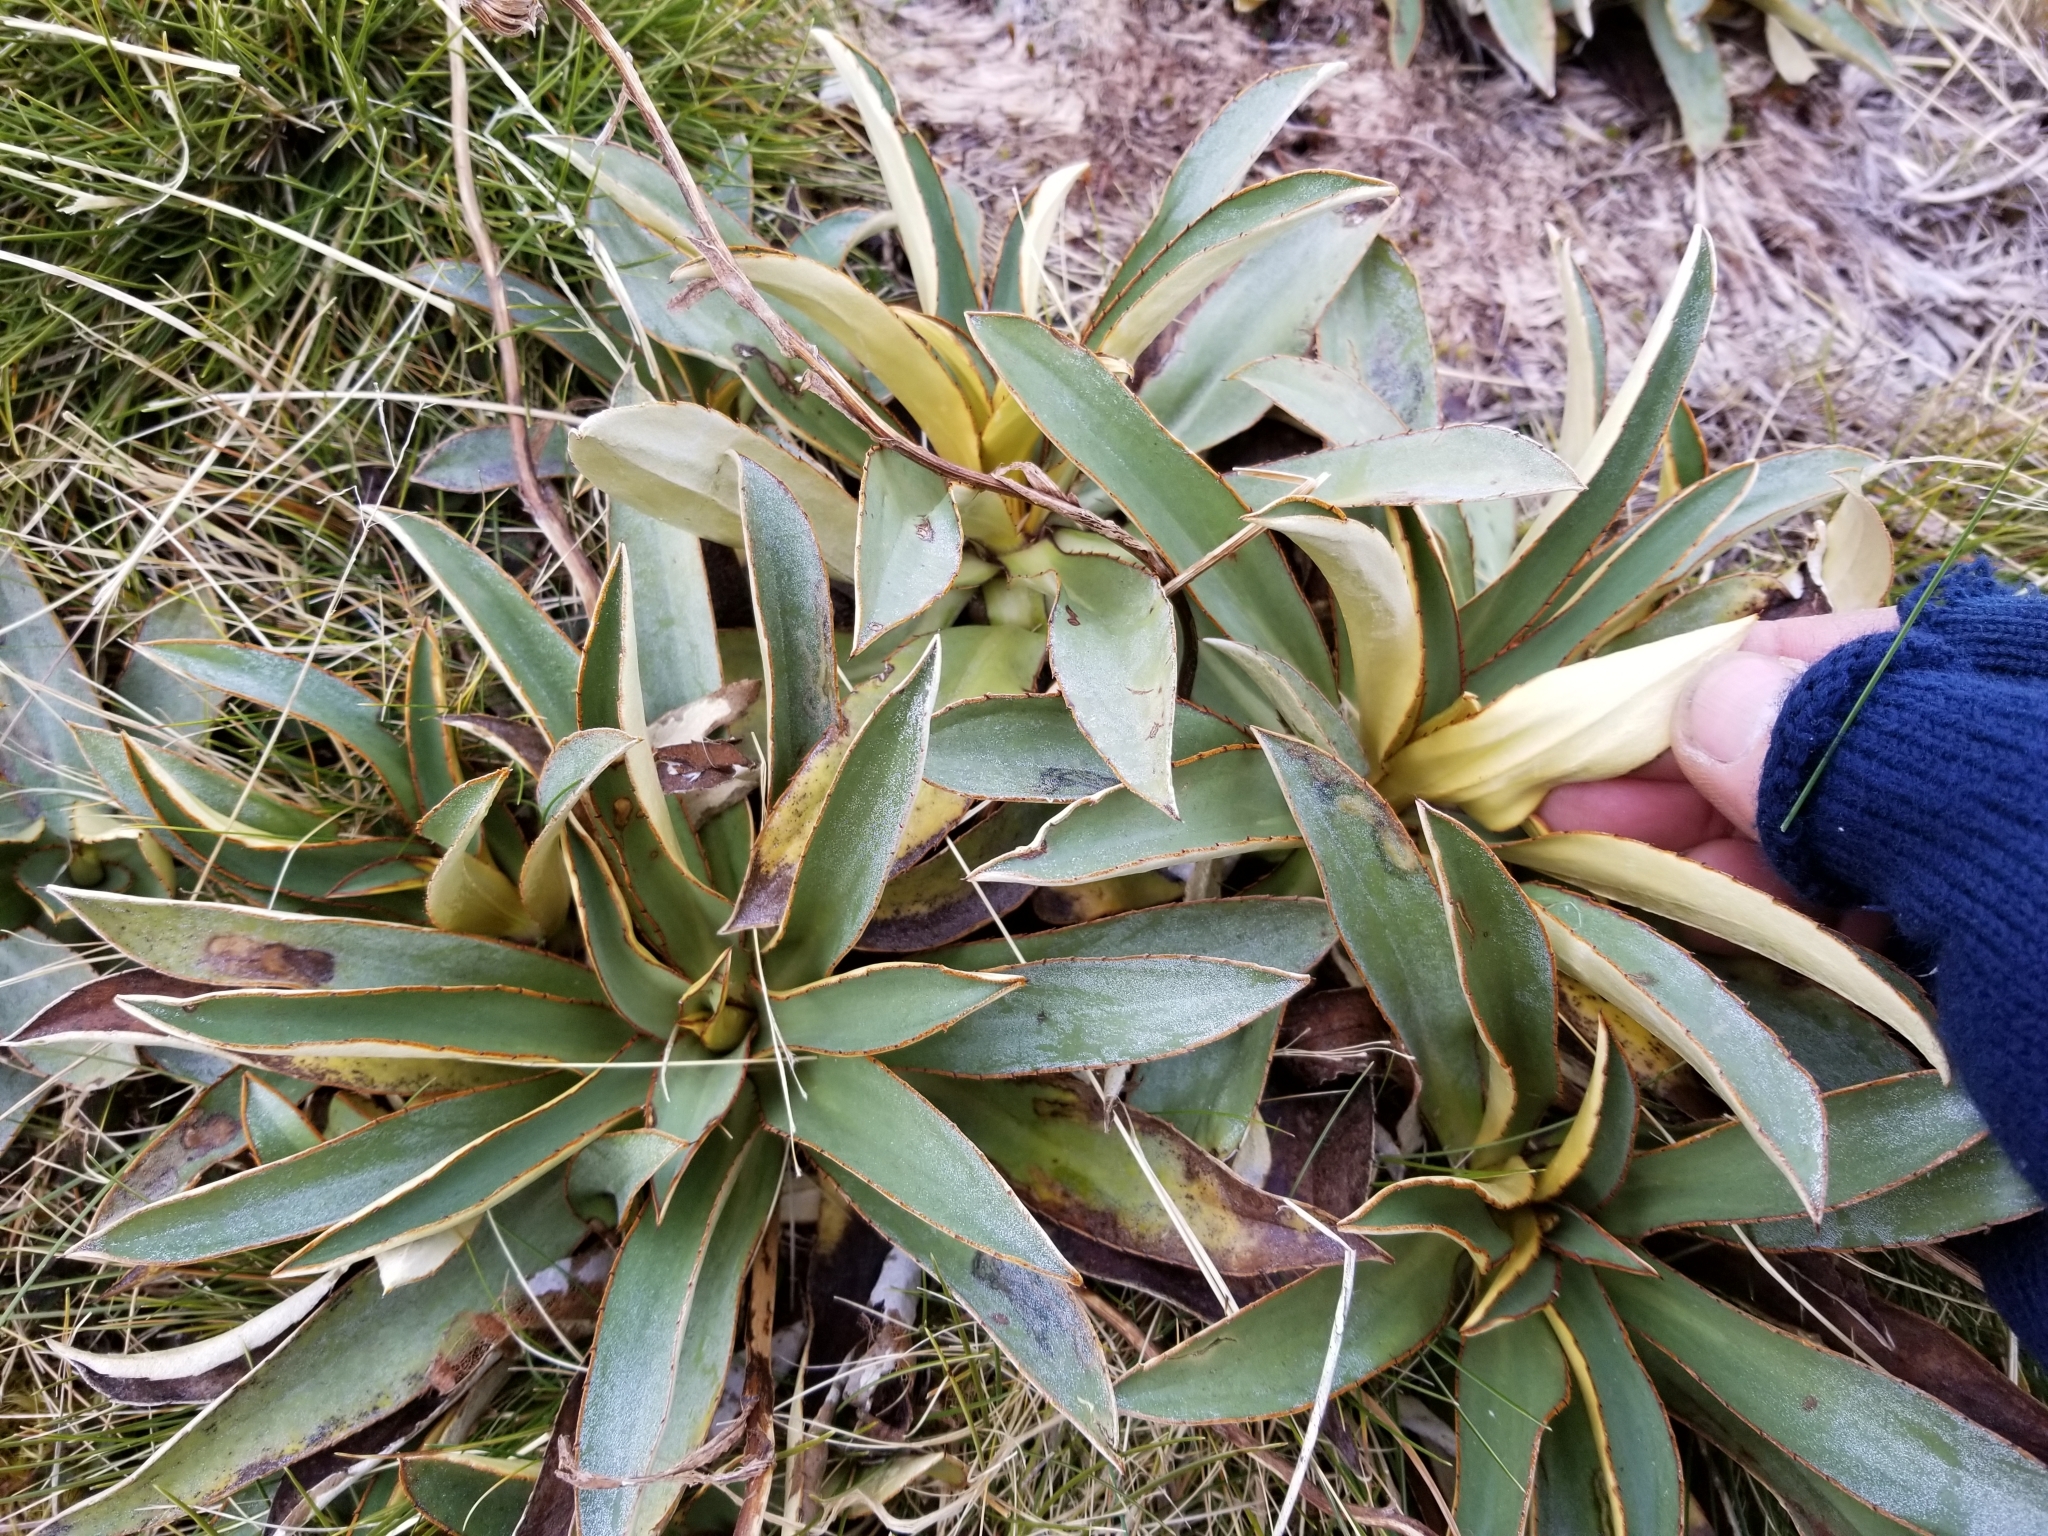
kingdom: Plantae
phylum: Tracheophyta
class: Magnoliopsida
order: Asterales
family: Asteraceae
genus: Celmisia
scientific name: Celmisia dallii
